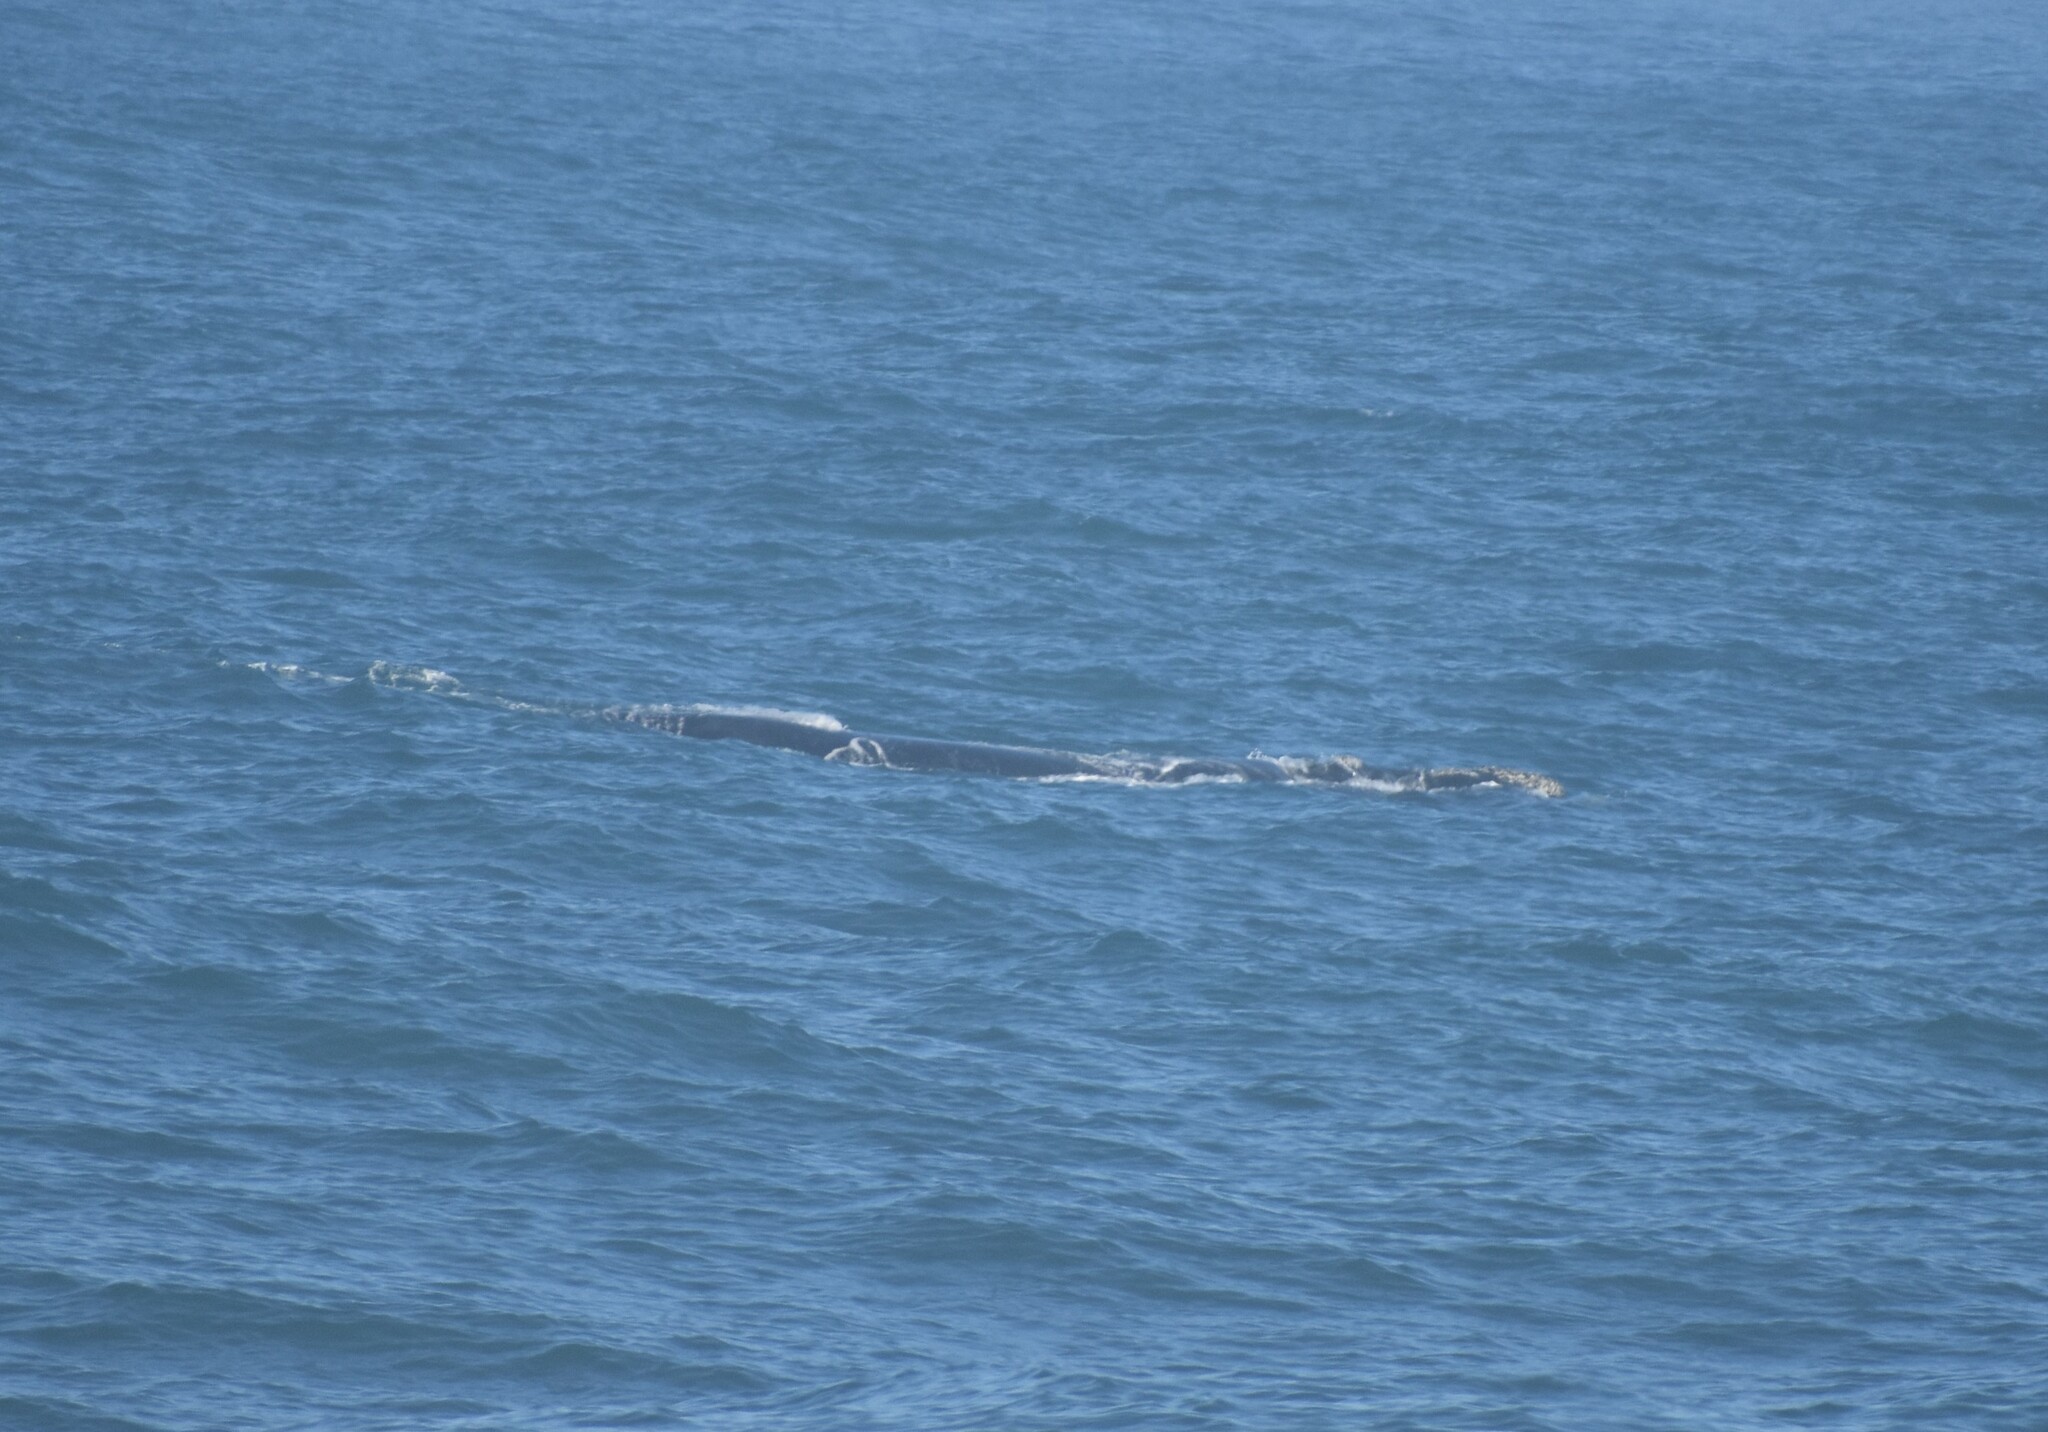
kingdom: Animalia
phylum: Chordata
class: Mammalia
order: Cetacea
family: Balaenidae
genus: Eubalaena
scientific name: Eubalaena australis
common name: Southern right whale
